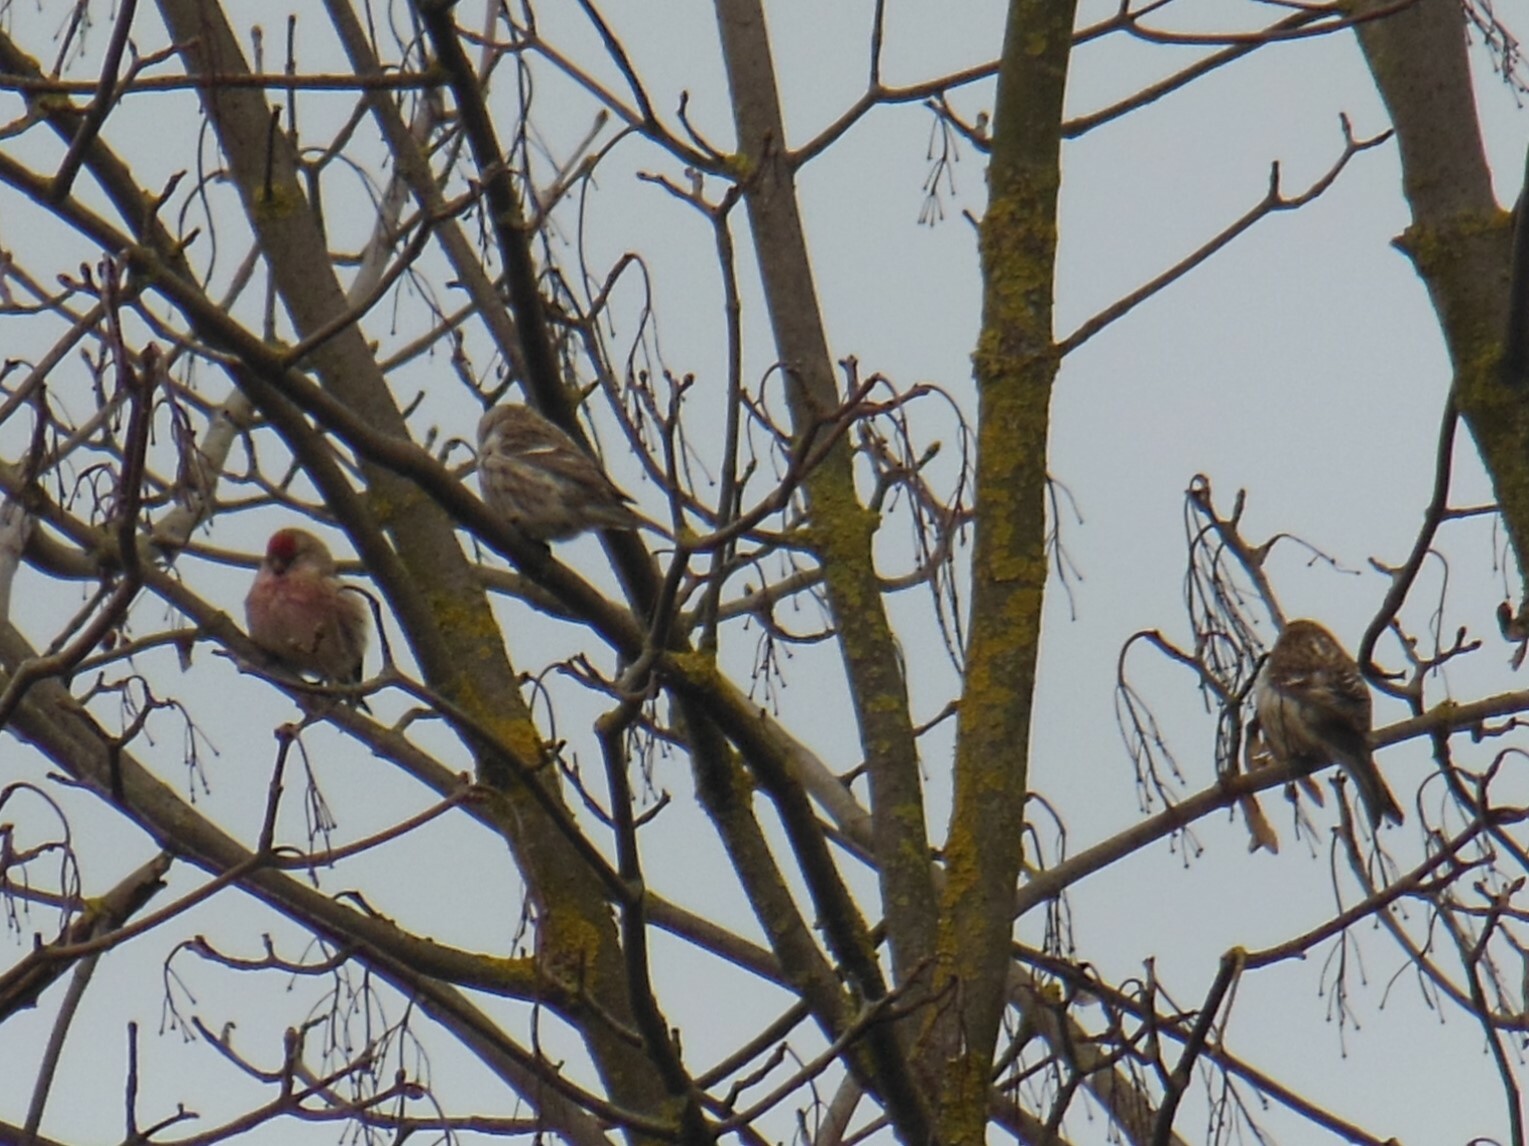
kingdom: Animalia
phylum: Chordata
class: Aves
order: Passeriformes
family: Fringillidae
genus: Acanthis
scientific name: Acanthis flammea
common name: Common redpoll
